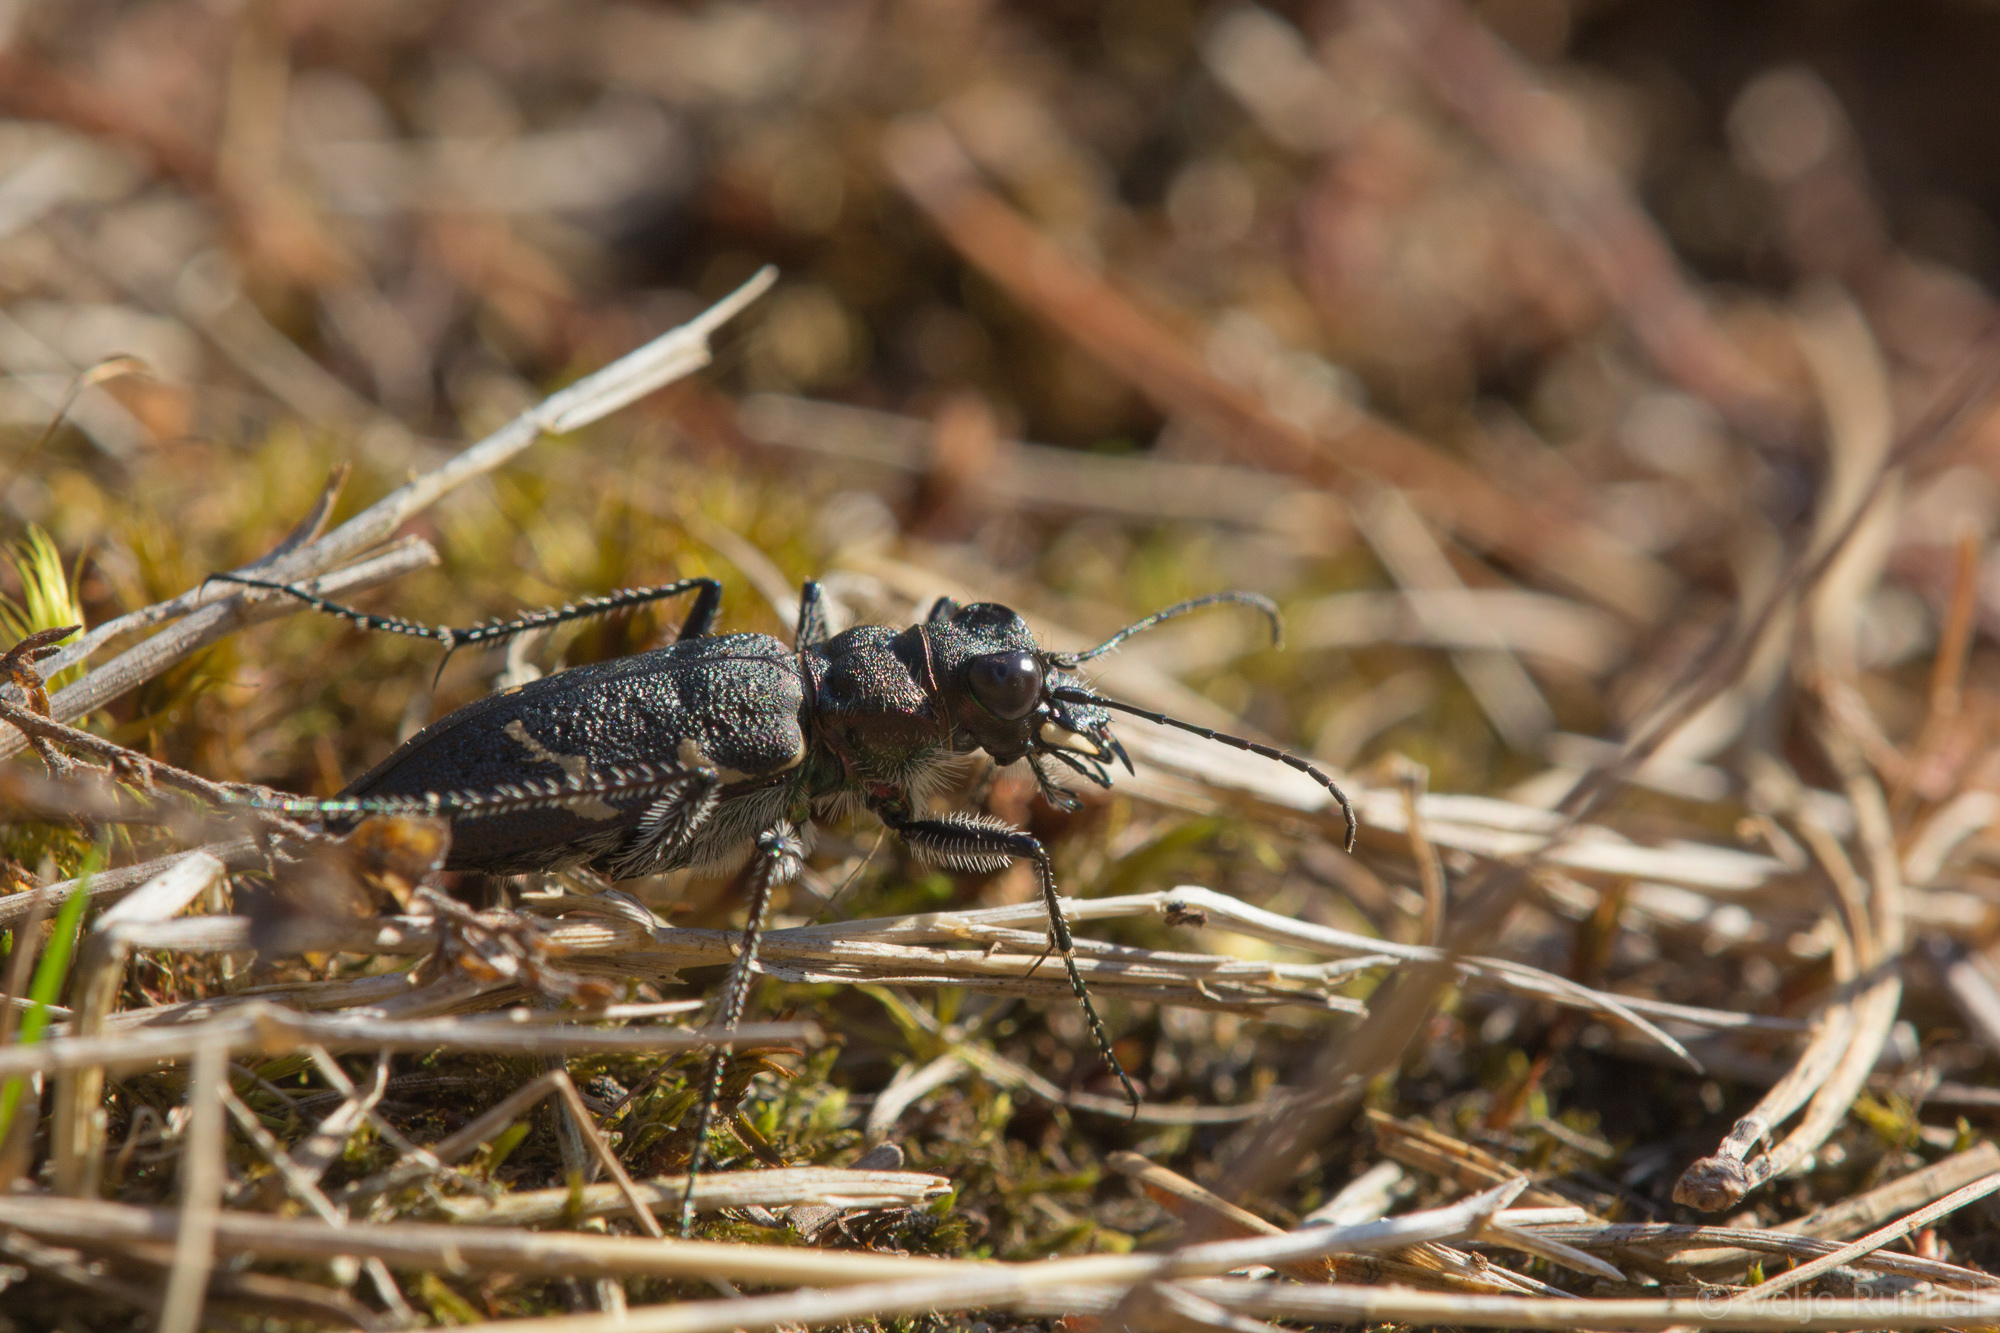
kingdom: Animalia
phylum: Arthropoda
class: Insecta
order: Coleoptera
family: Carabidae
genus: Cicindela
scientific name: Cicindela sylvatica
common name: Heath tiger beetle
